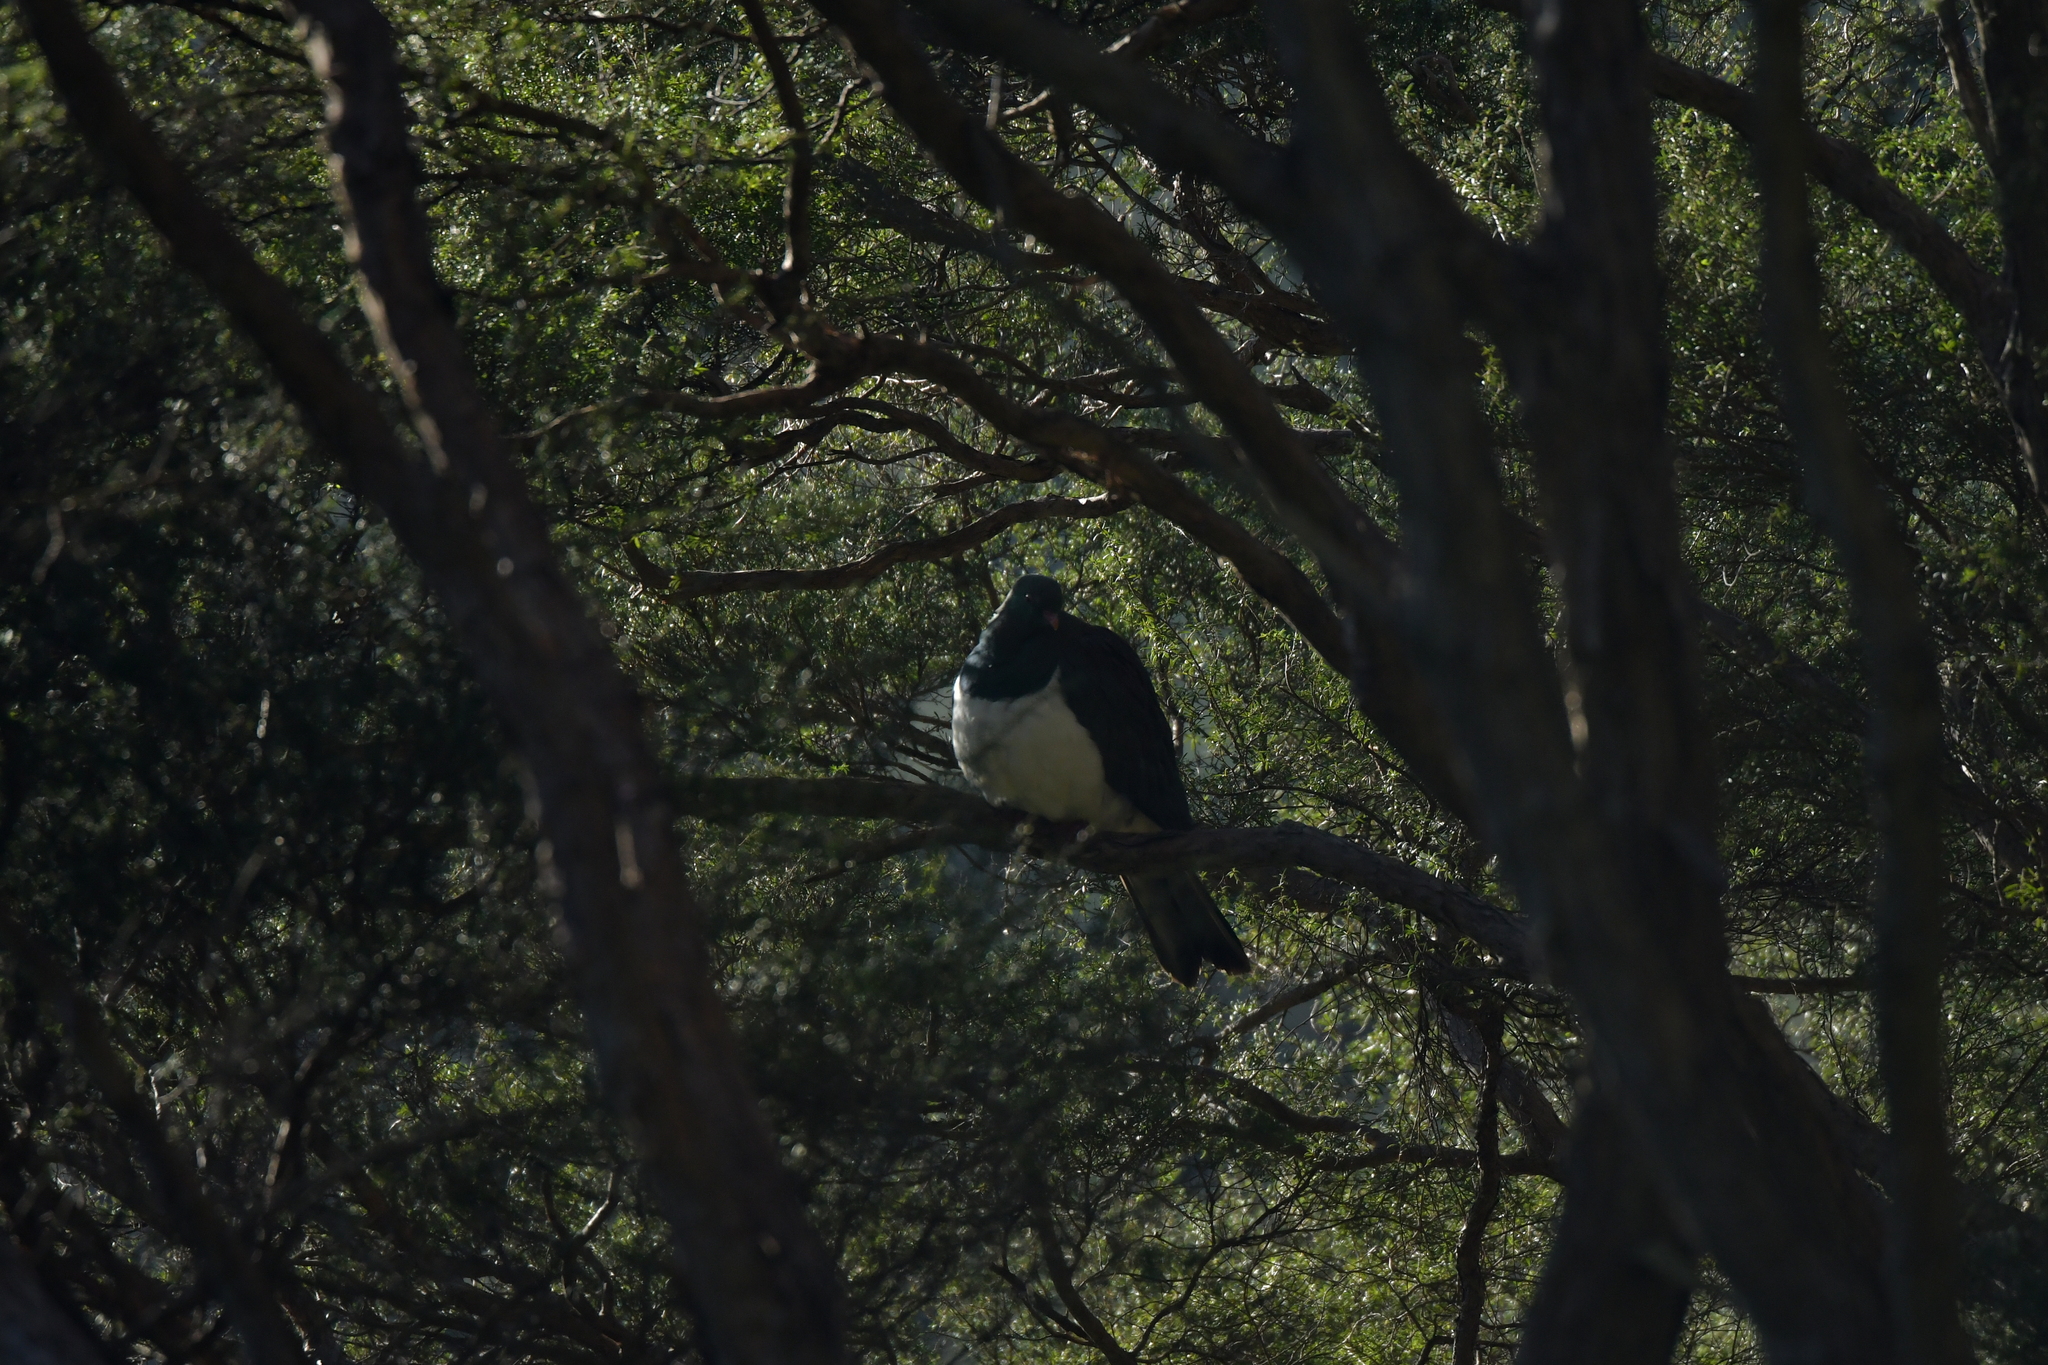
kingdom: Animalia
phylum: Chordata
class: Aves
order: Columbiformes
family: Columbidae
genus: Hemiphaga
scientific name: Hemiphaga novaeseelandiae
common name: New zealand pigeon
